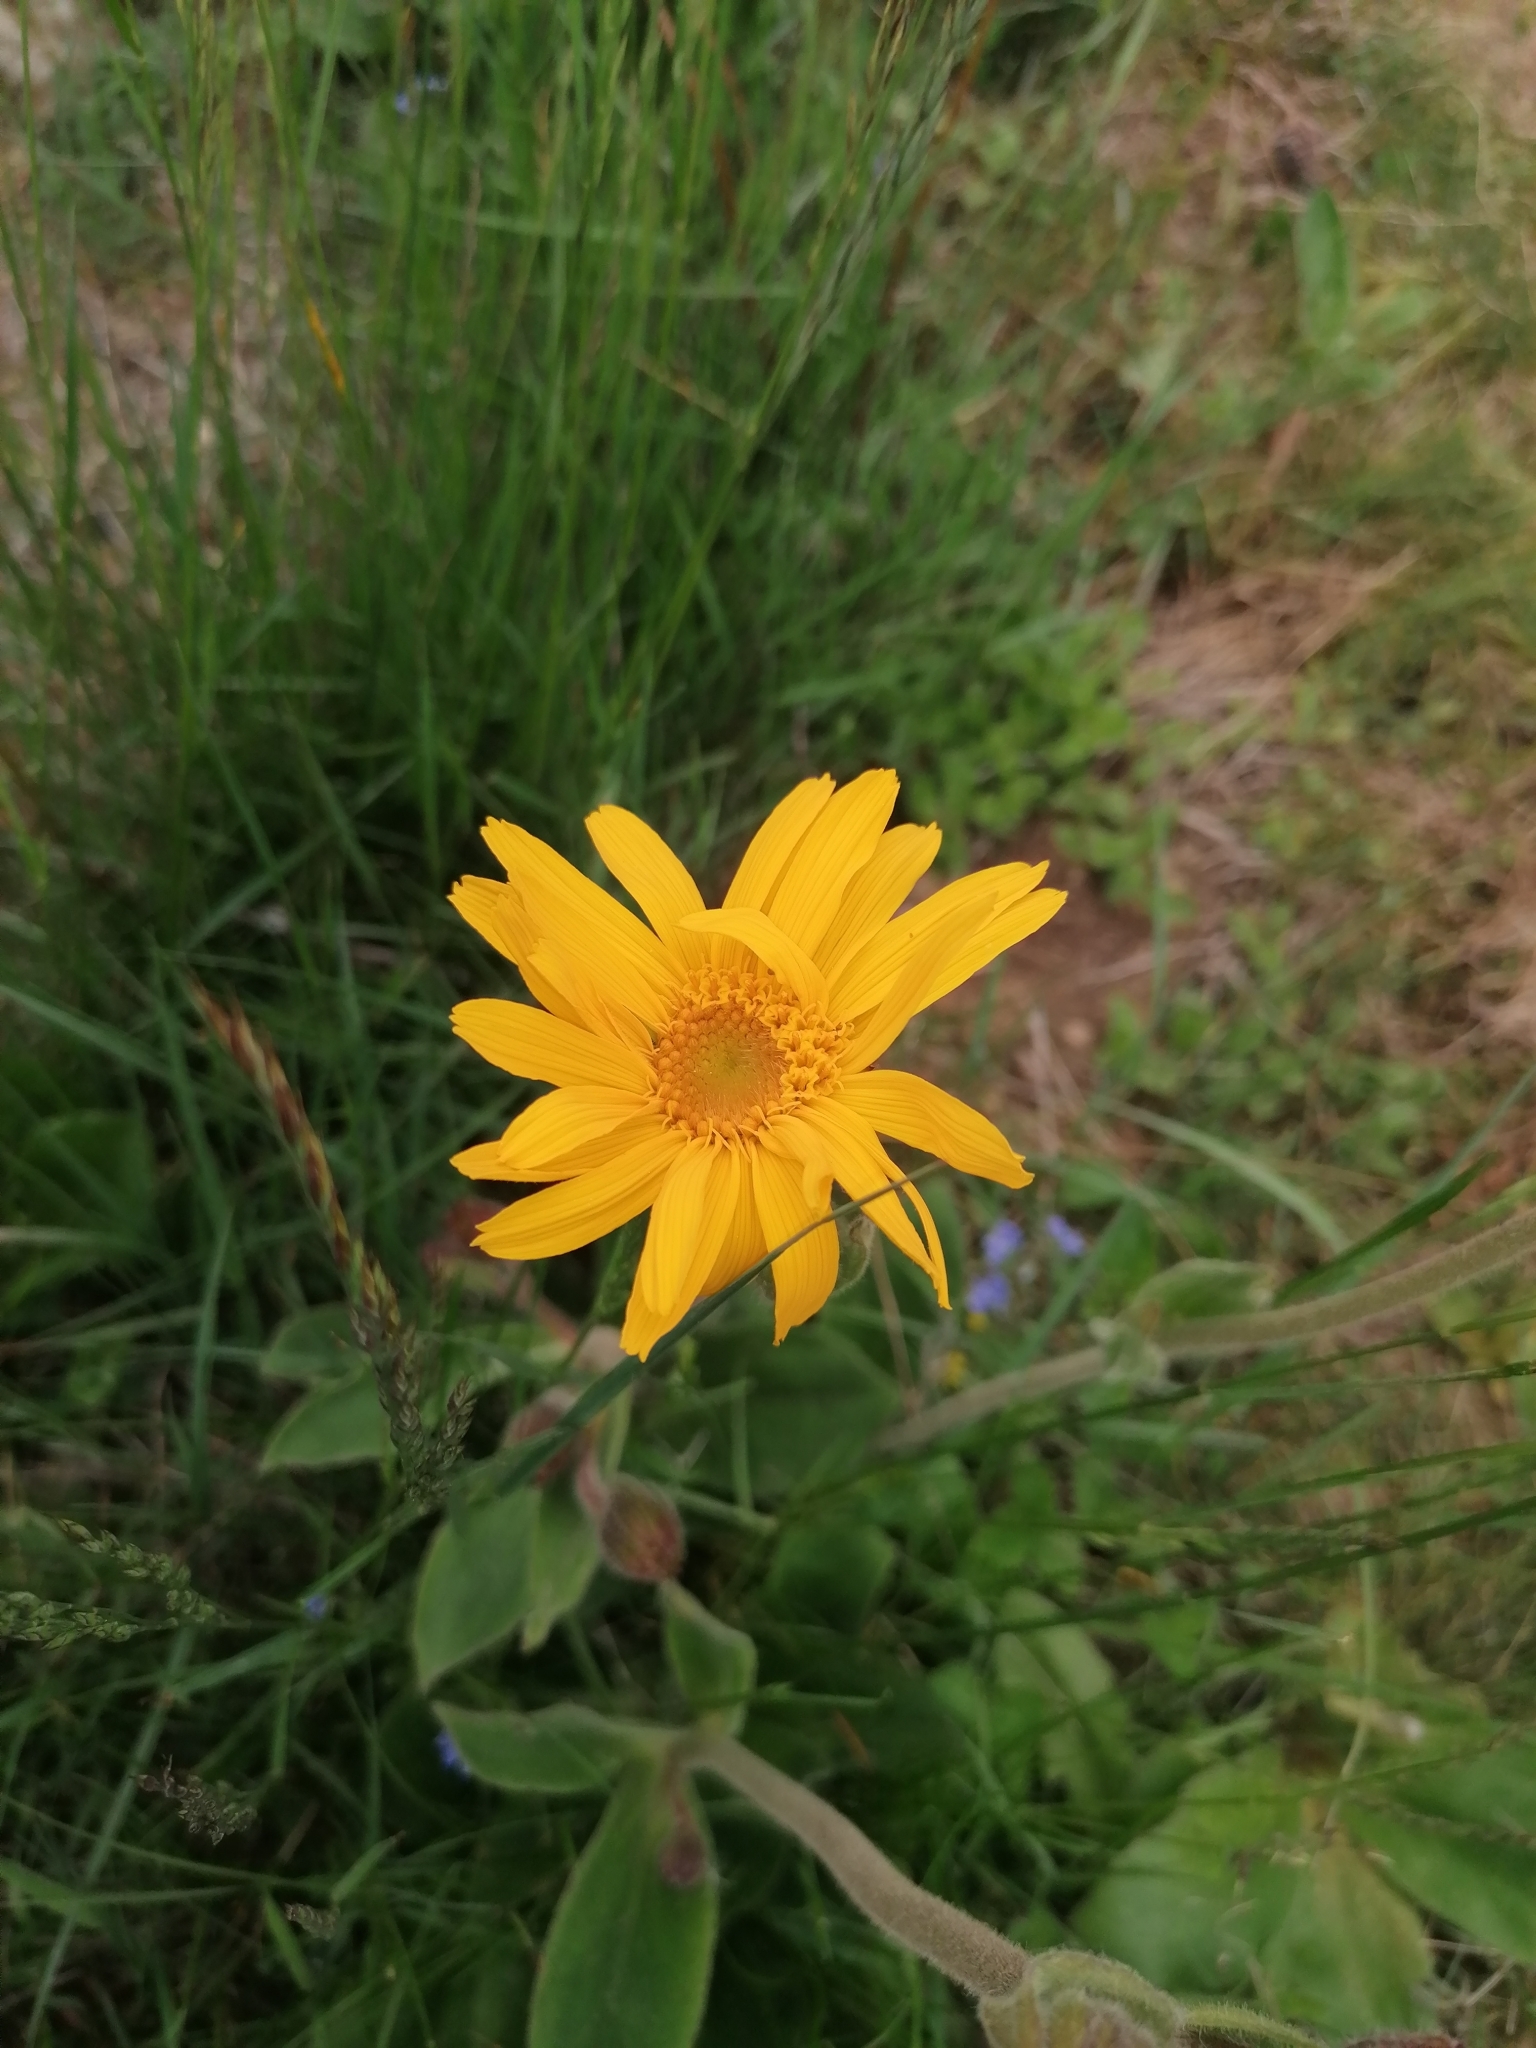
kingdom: Plantae
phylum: Tracheophyta
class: Magnoliopsida
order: Asterales
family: Asteraceae
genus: Arnica
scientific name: Arnica montana
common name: Leopard's bane
